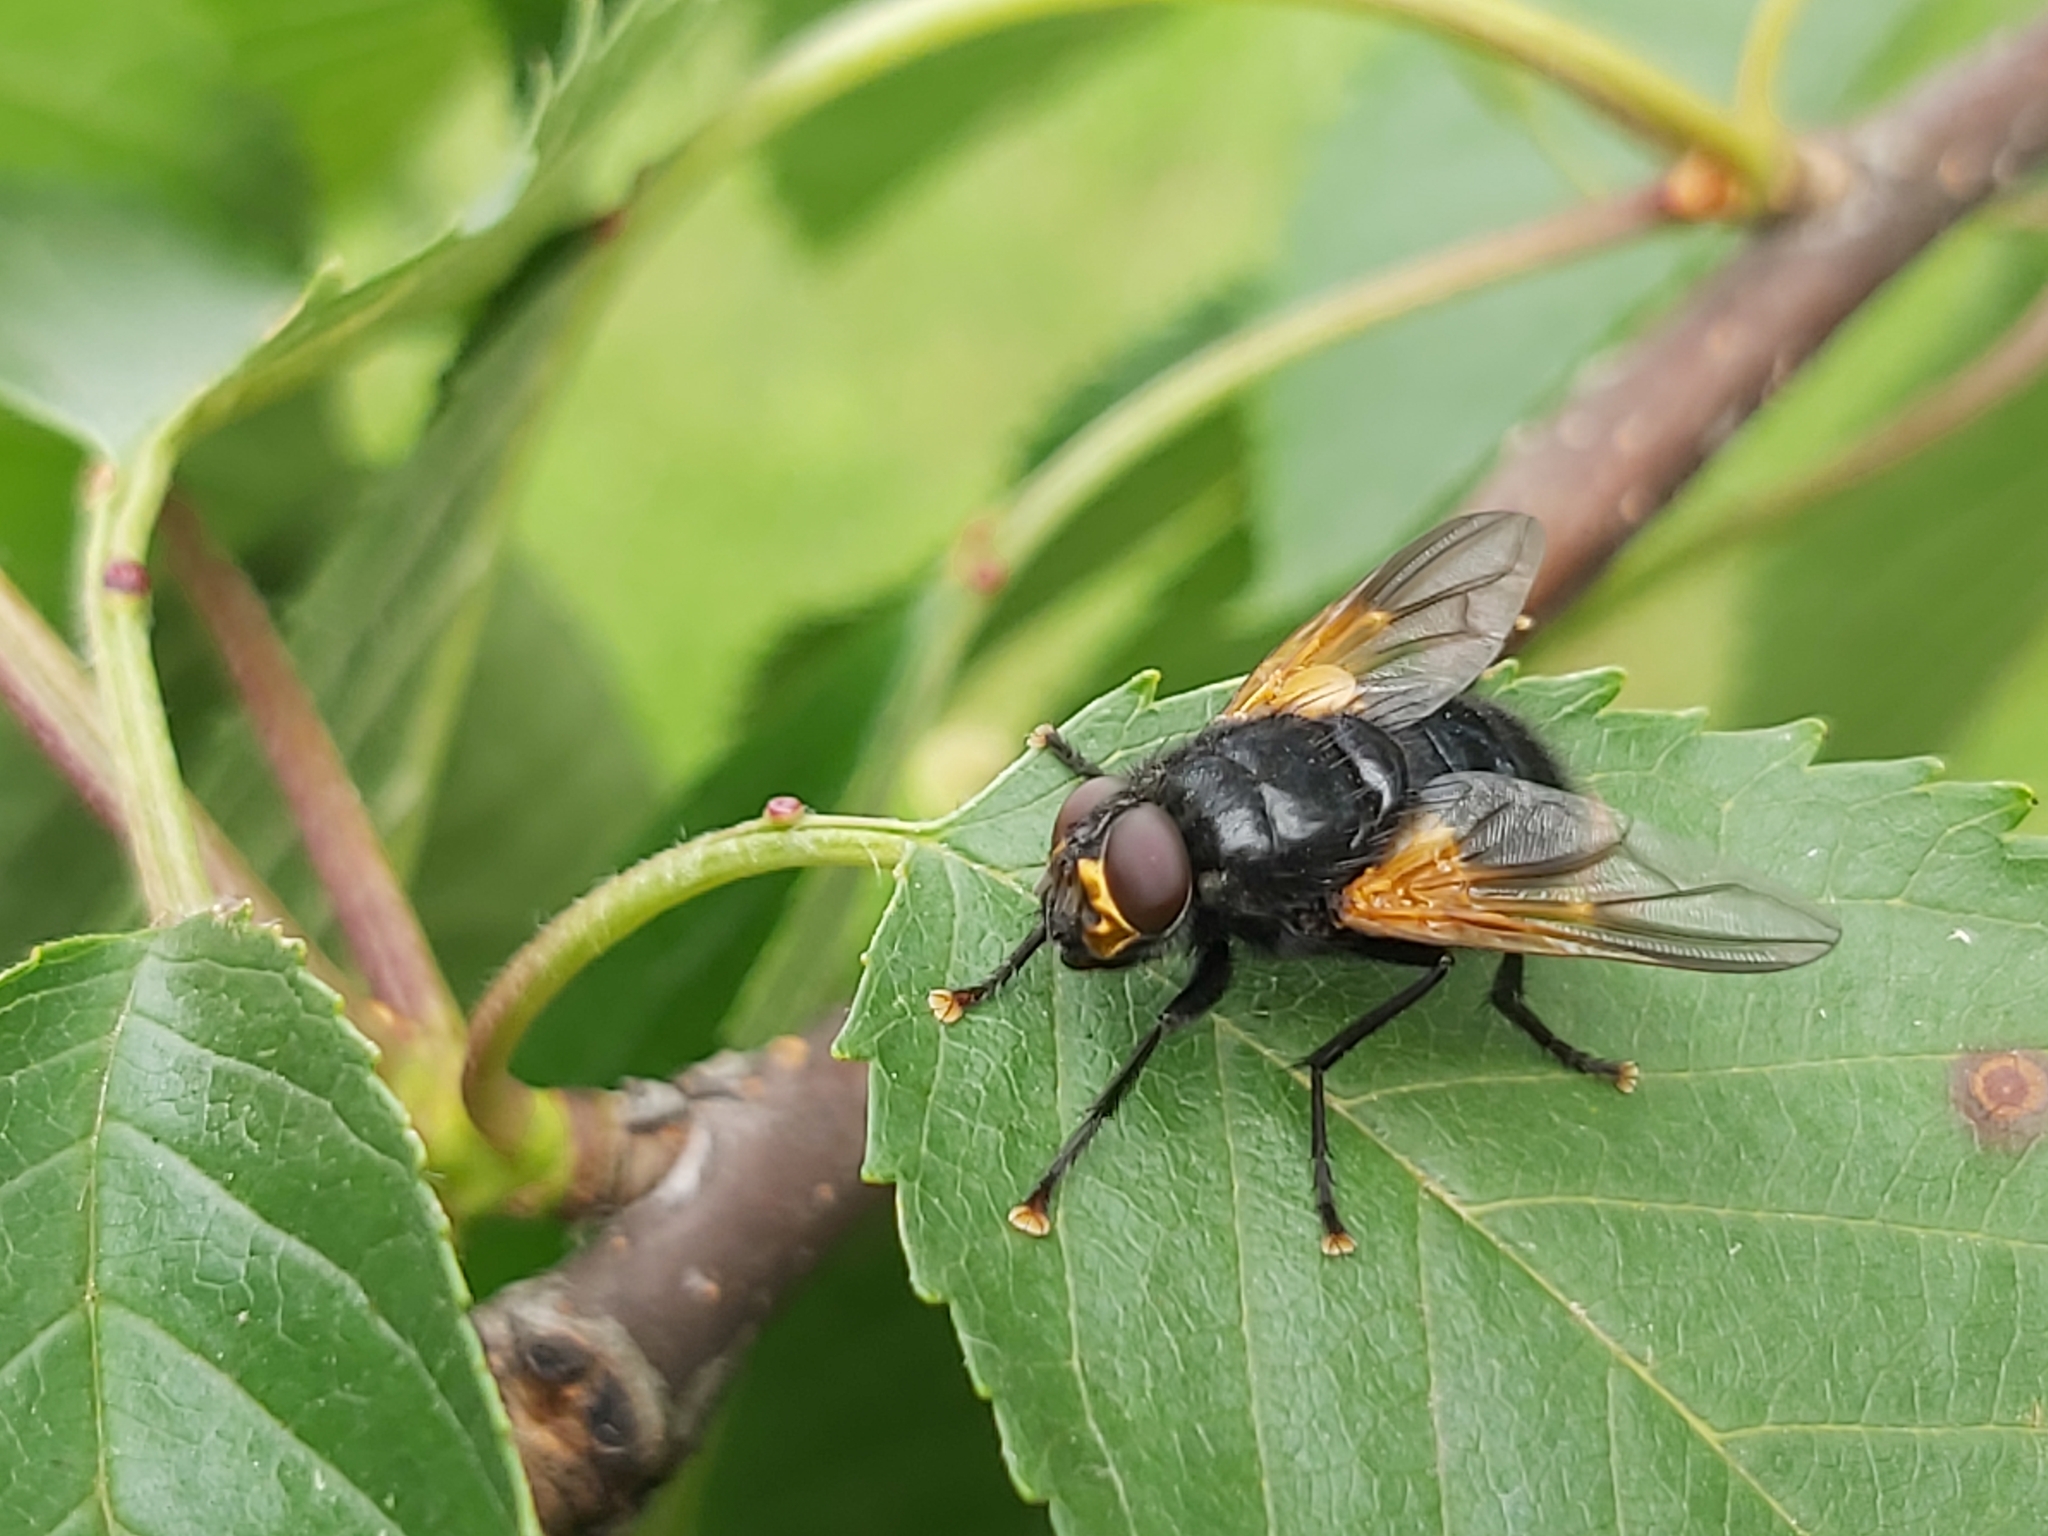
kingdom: Animalia
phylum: Arthropoda
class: Insecta
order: Diptera
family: Muscidae
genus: Mesembrina
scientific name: Mesembrina meridiana
